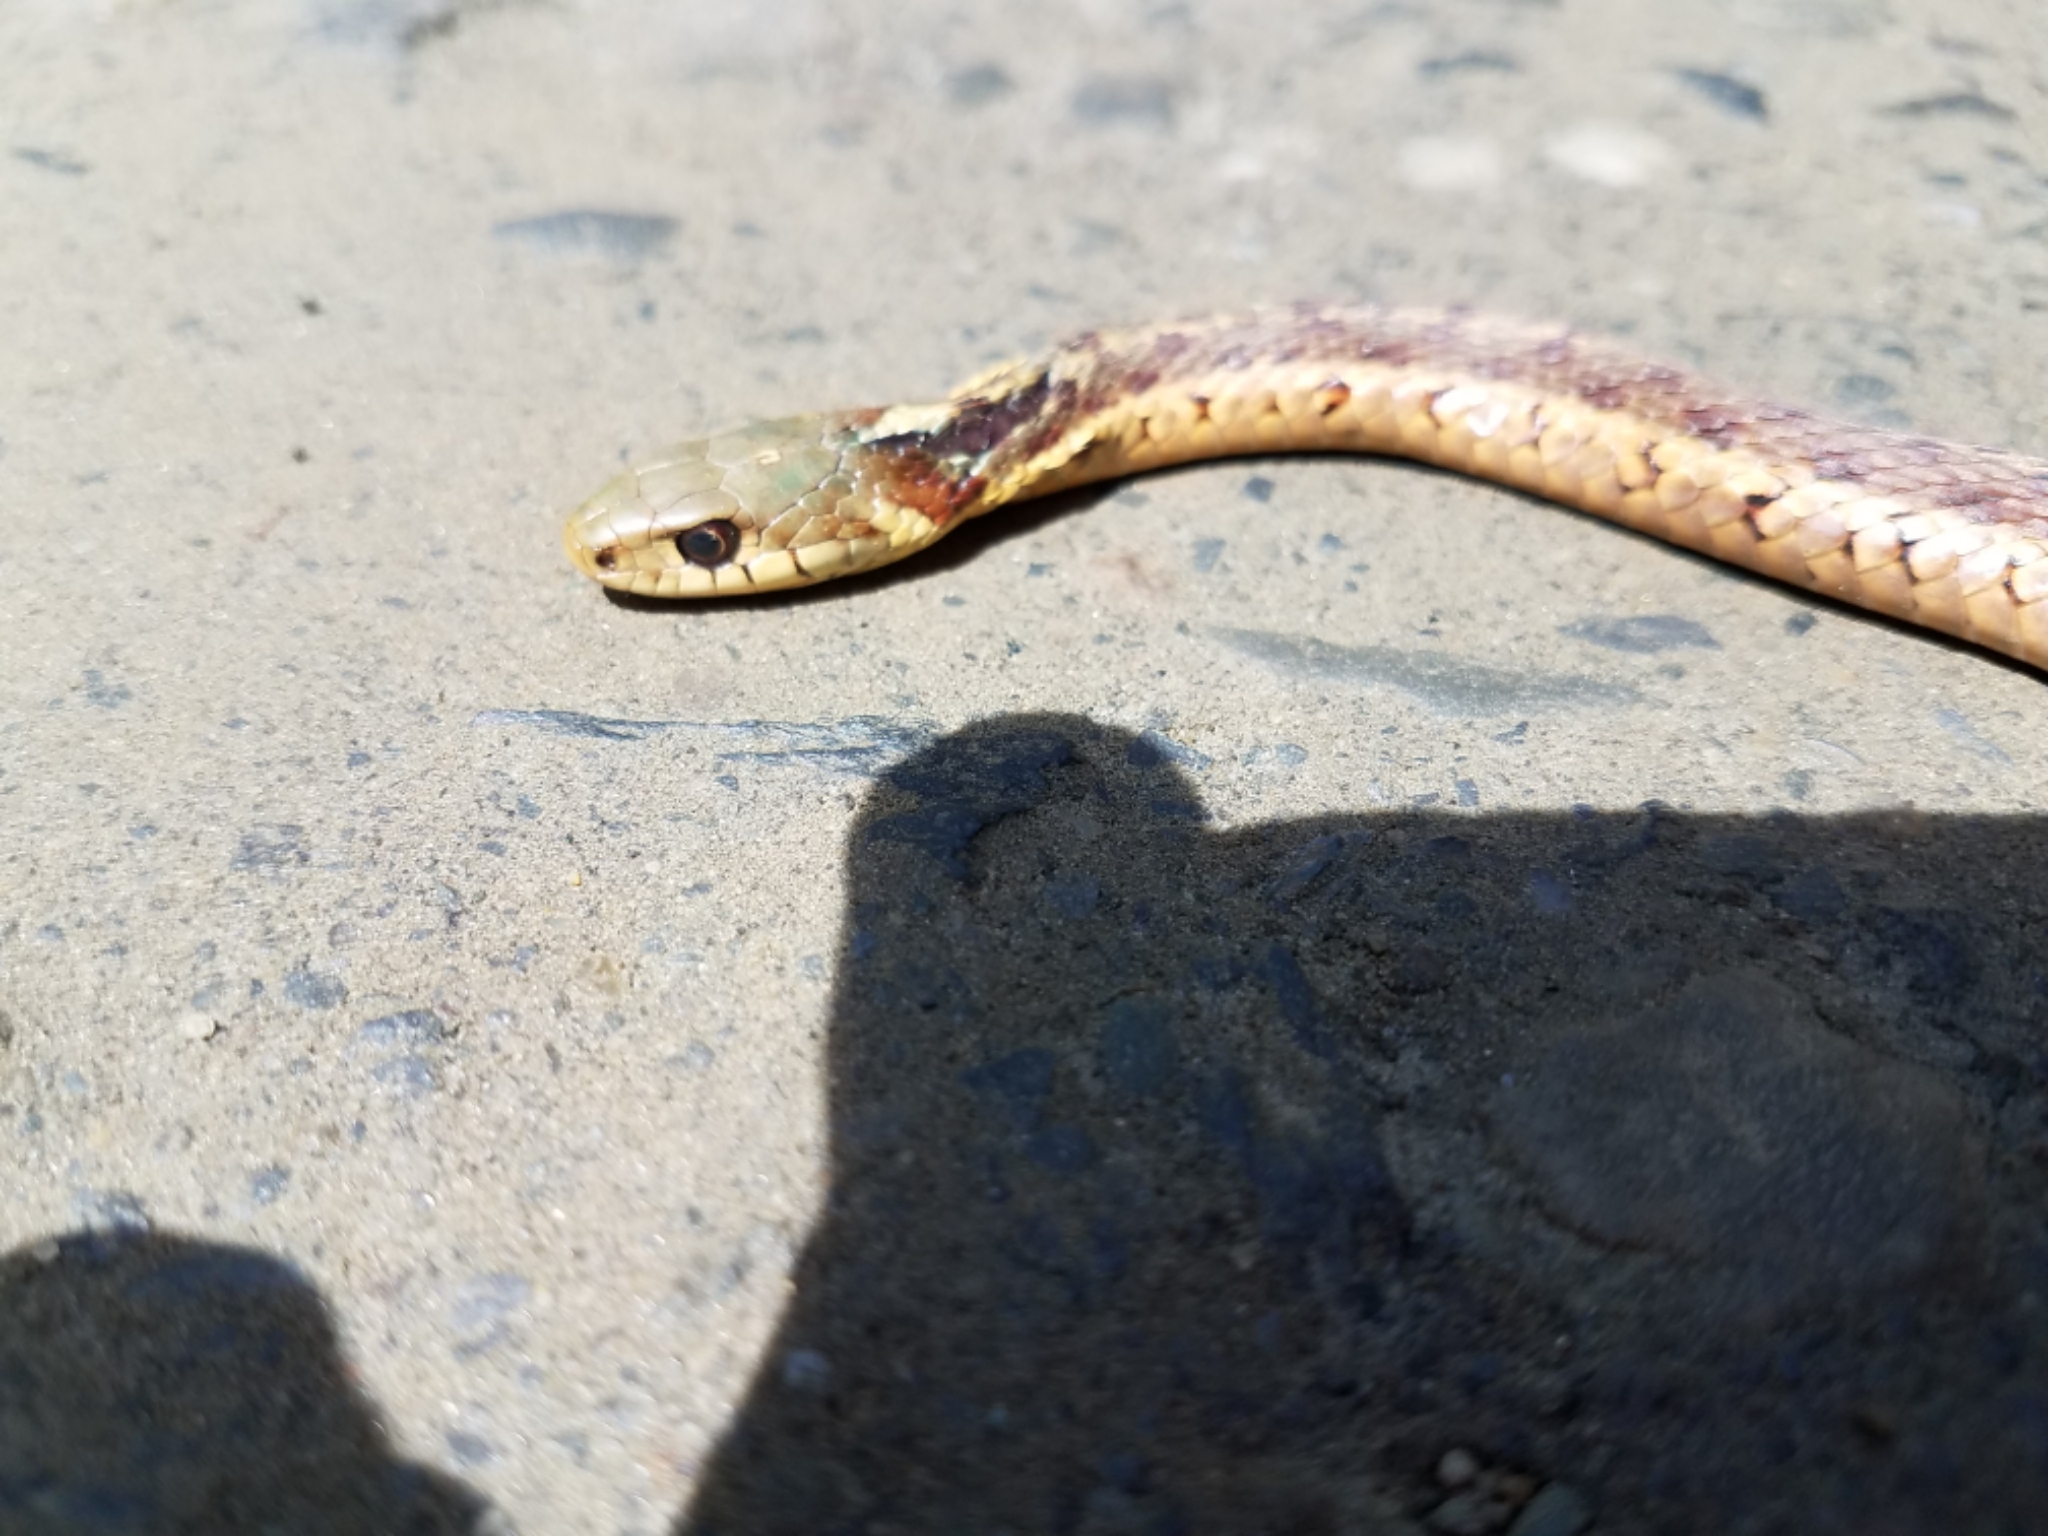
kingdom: Animalia
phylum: Chordata
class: Squamata
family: Colubridae
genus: Thamnophis
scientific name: Thamnophis sirtalis
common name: Common garter snake
